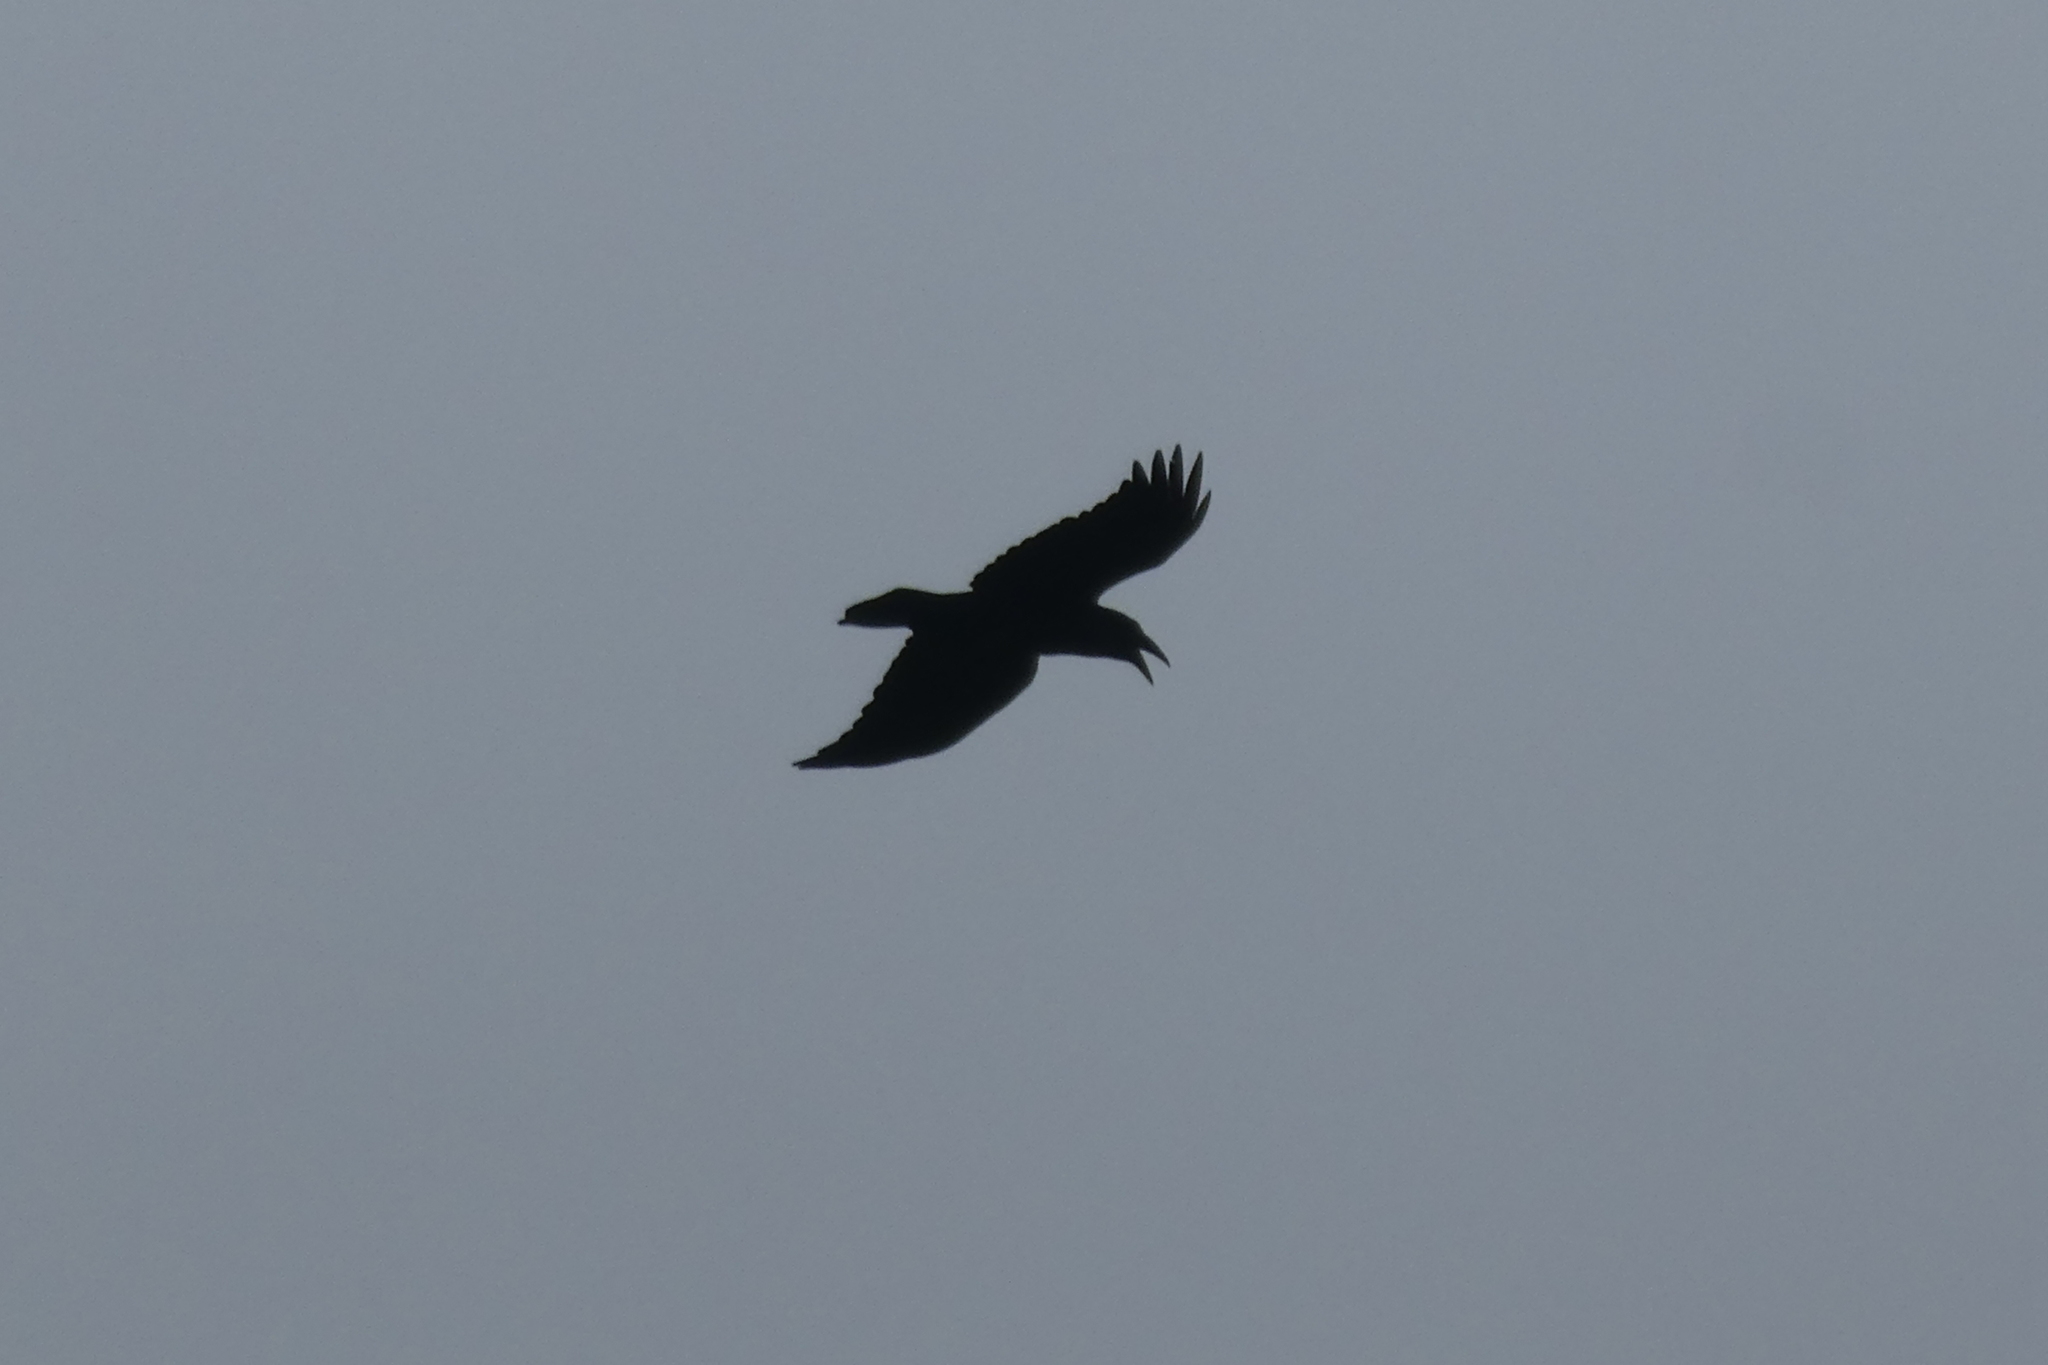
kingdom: Animalia
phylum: Chordata
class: Aves
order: Passeriformes
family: Corvidae
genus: Corvus
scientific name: Corvus corax
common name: Common raven
